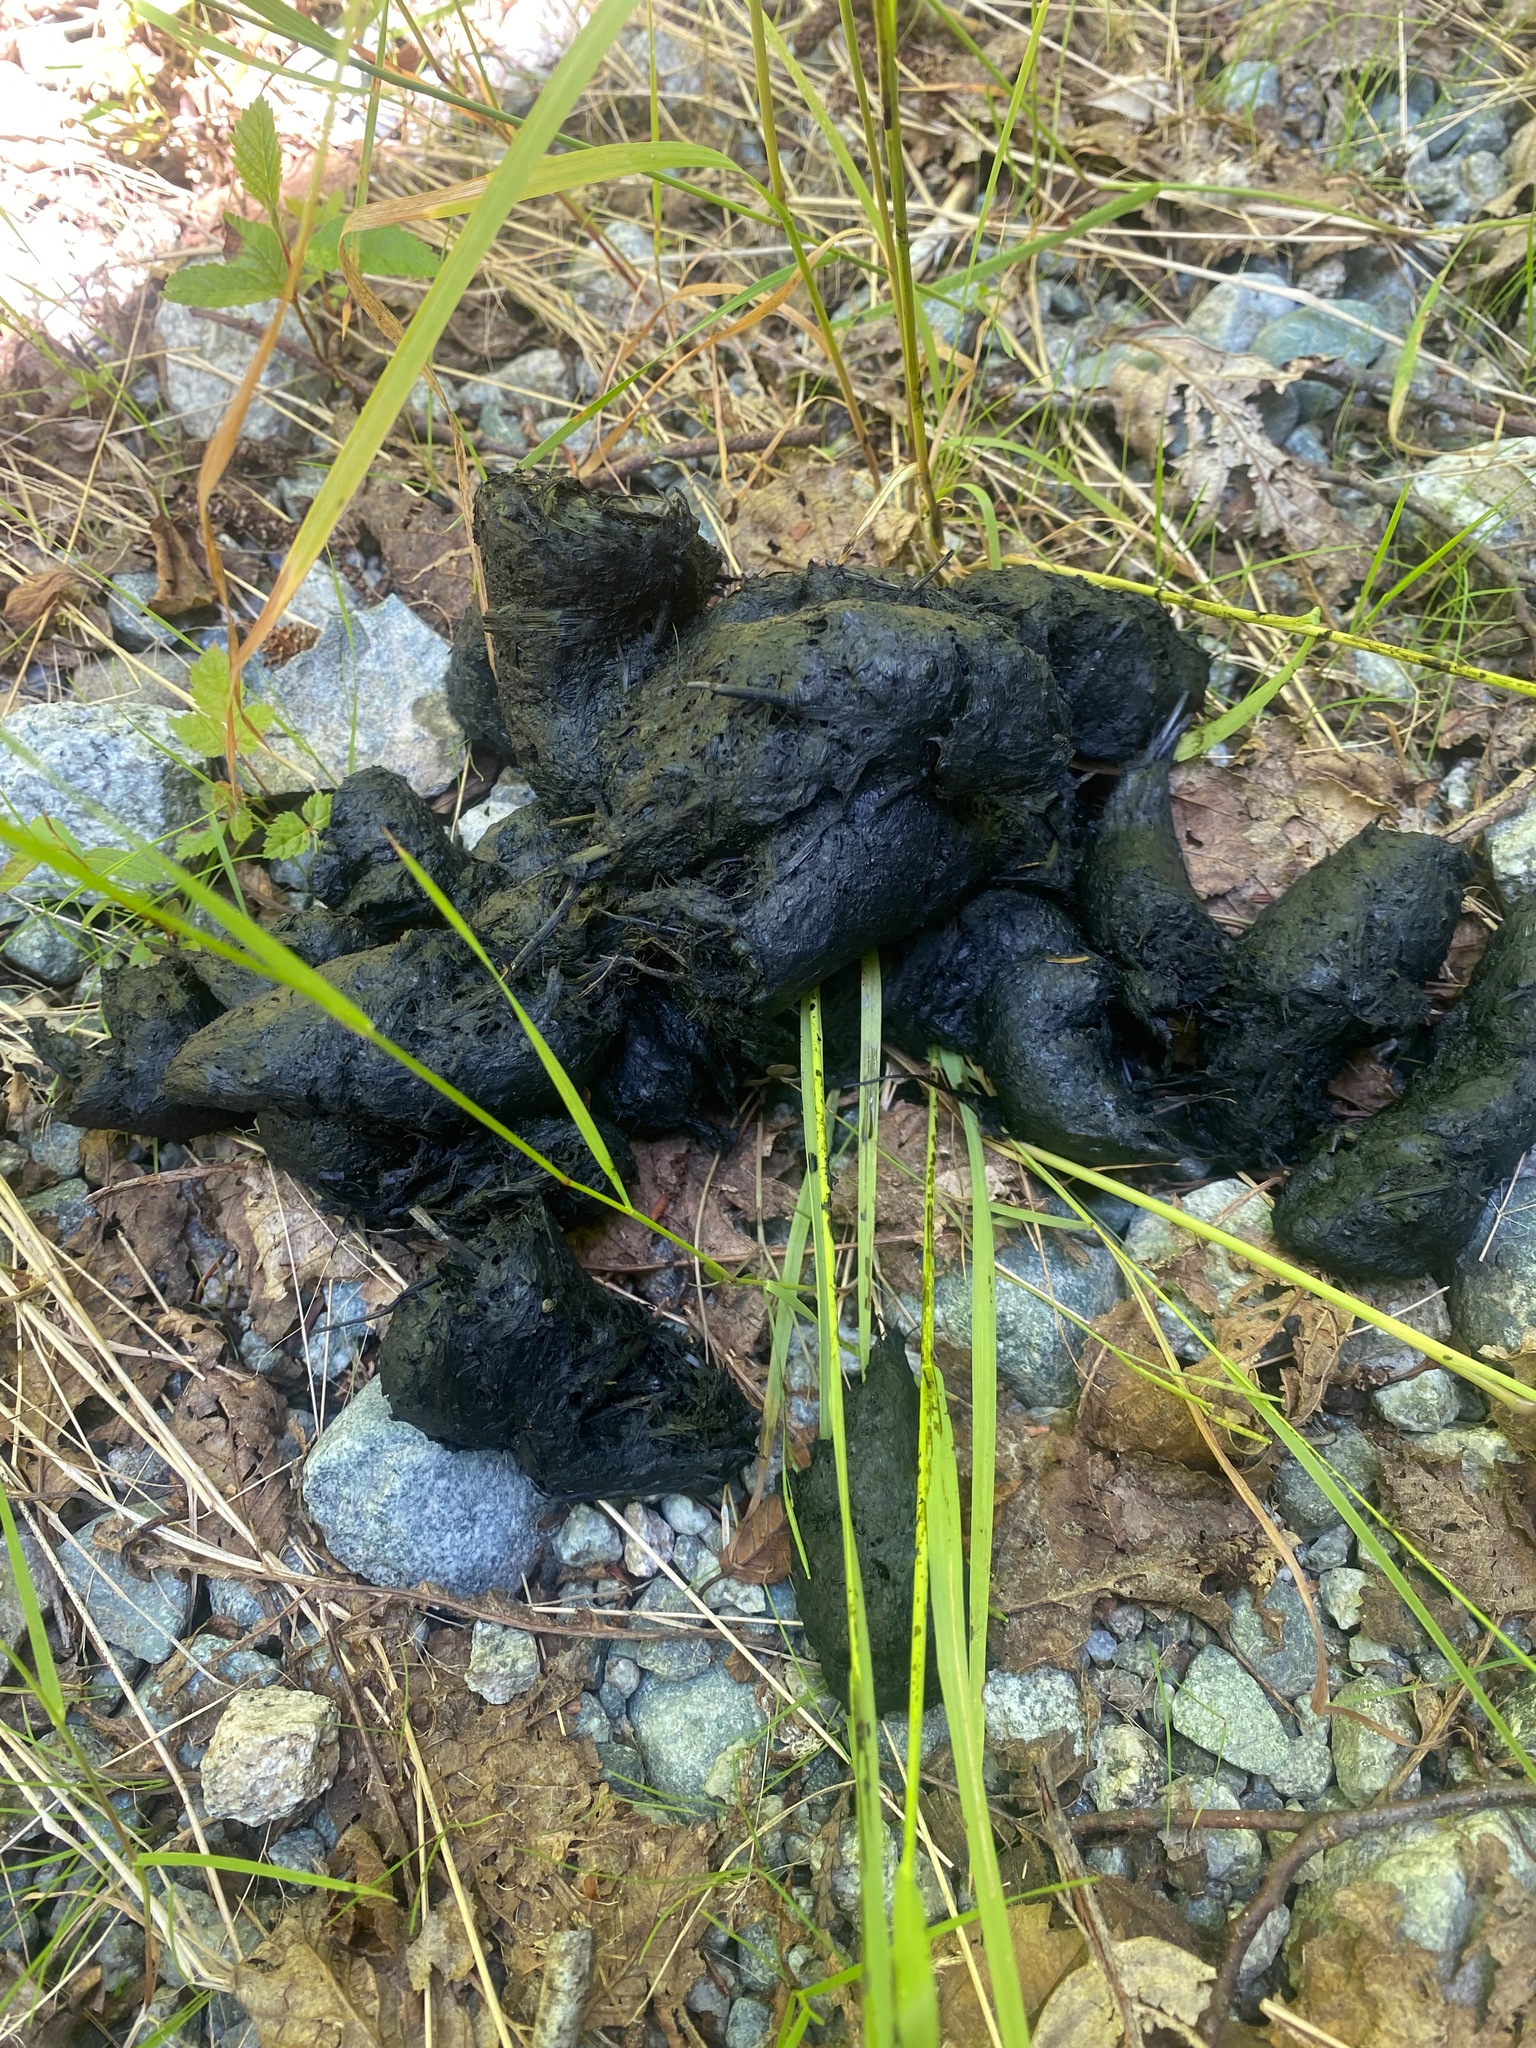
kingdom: Animalia
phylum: Chordata
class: Mammalia
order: Carnivora
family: Ursidae
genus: Ursus
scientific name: Ursus americanus
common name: American black bear
